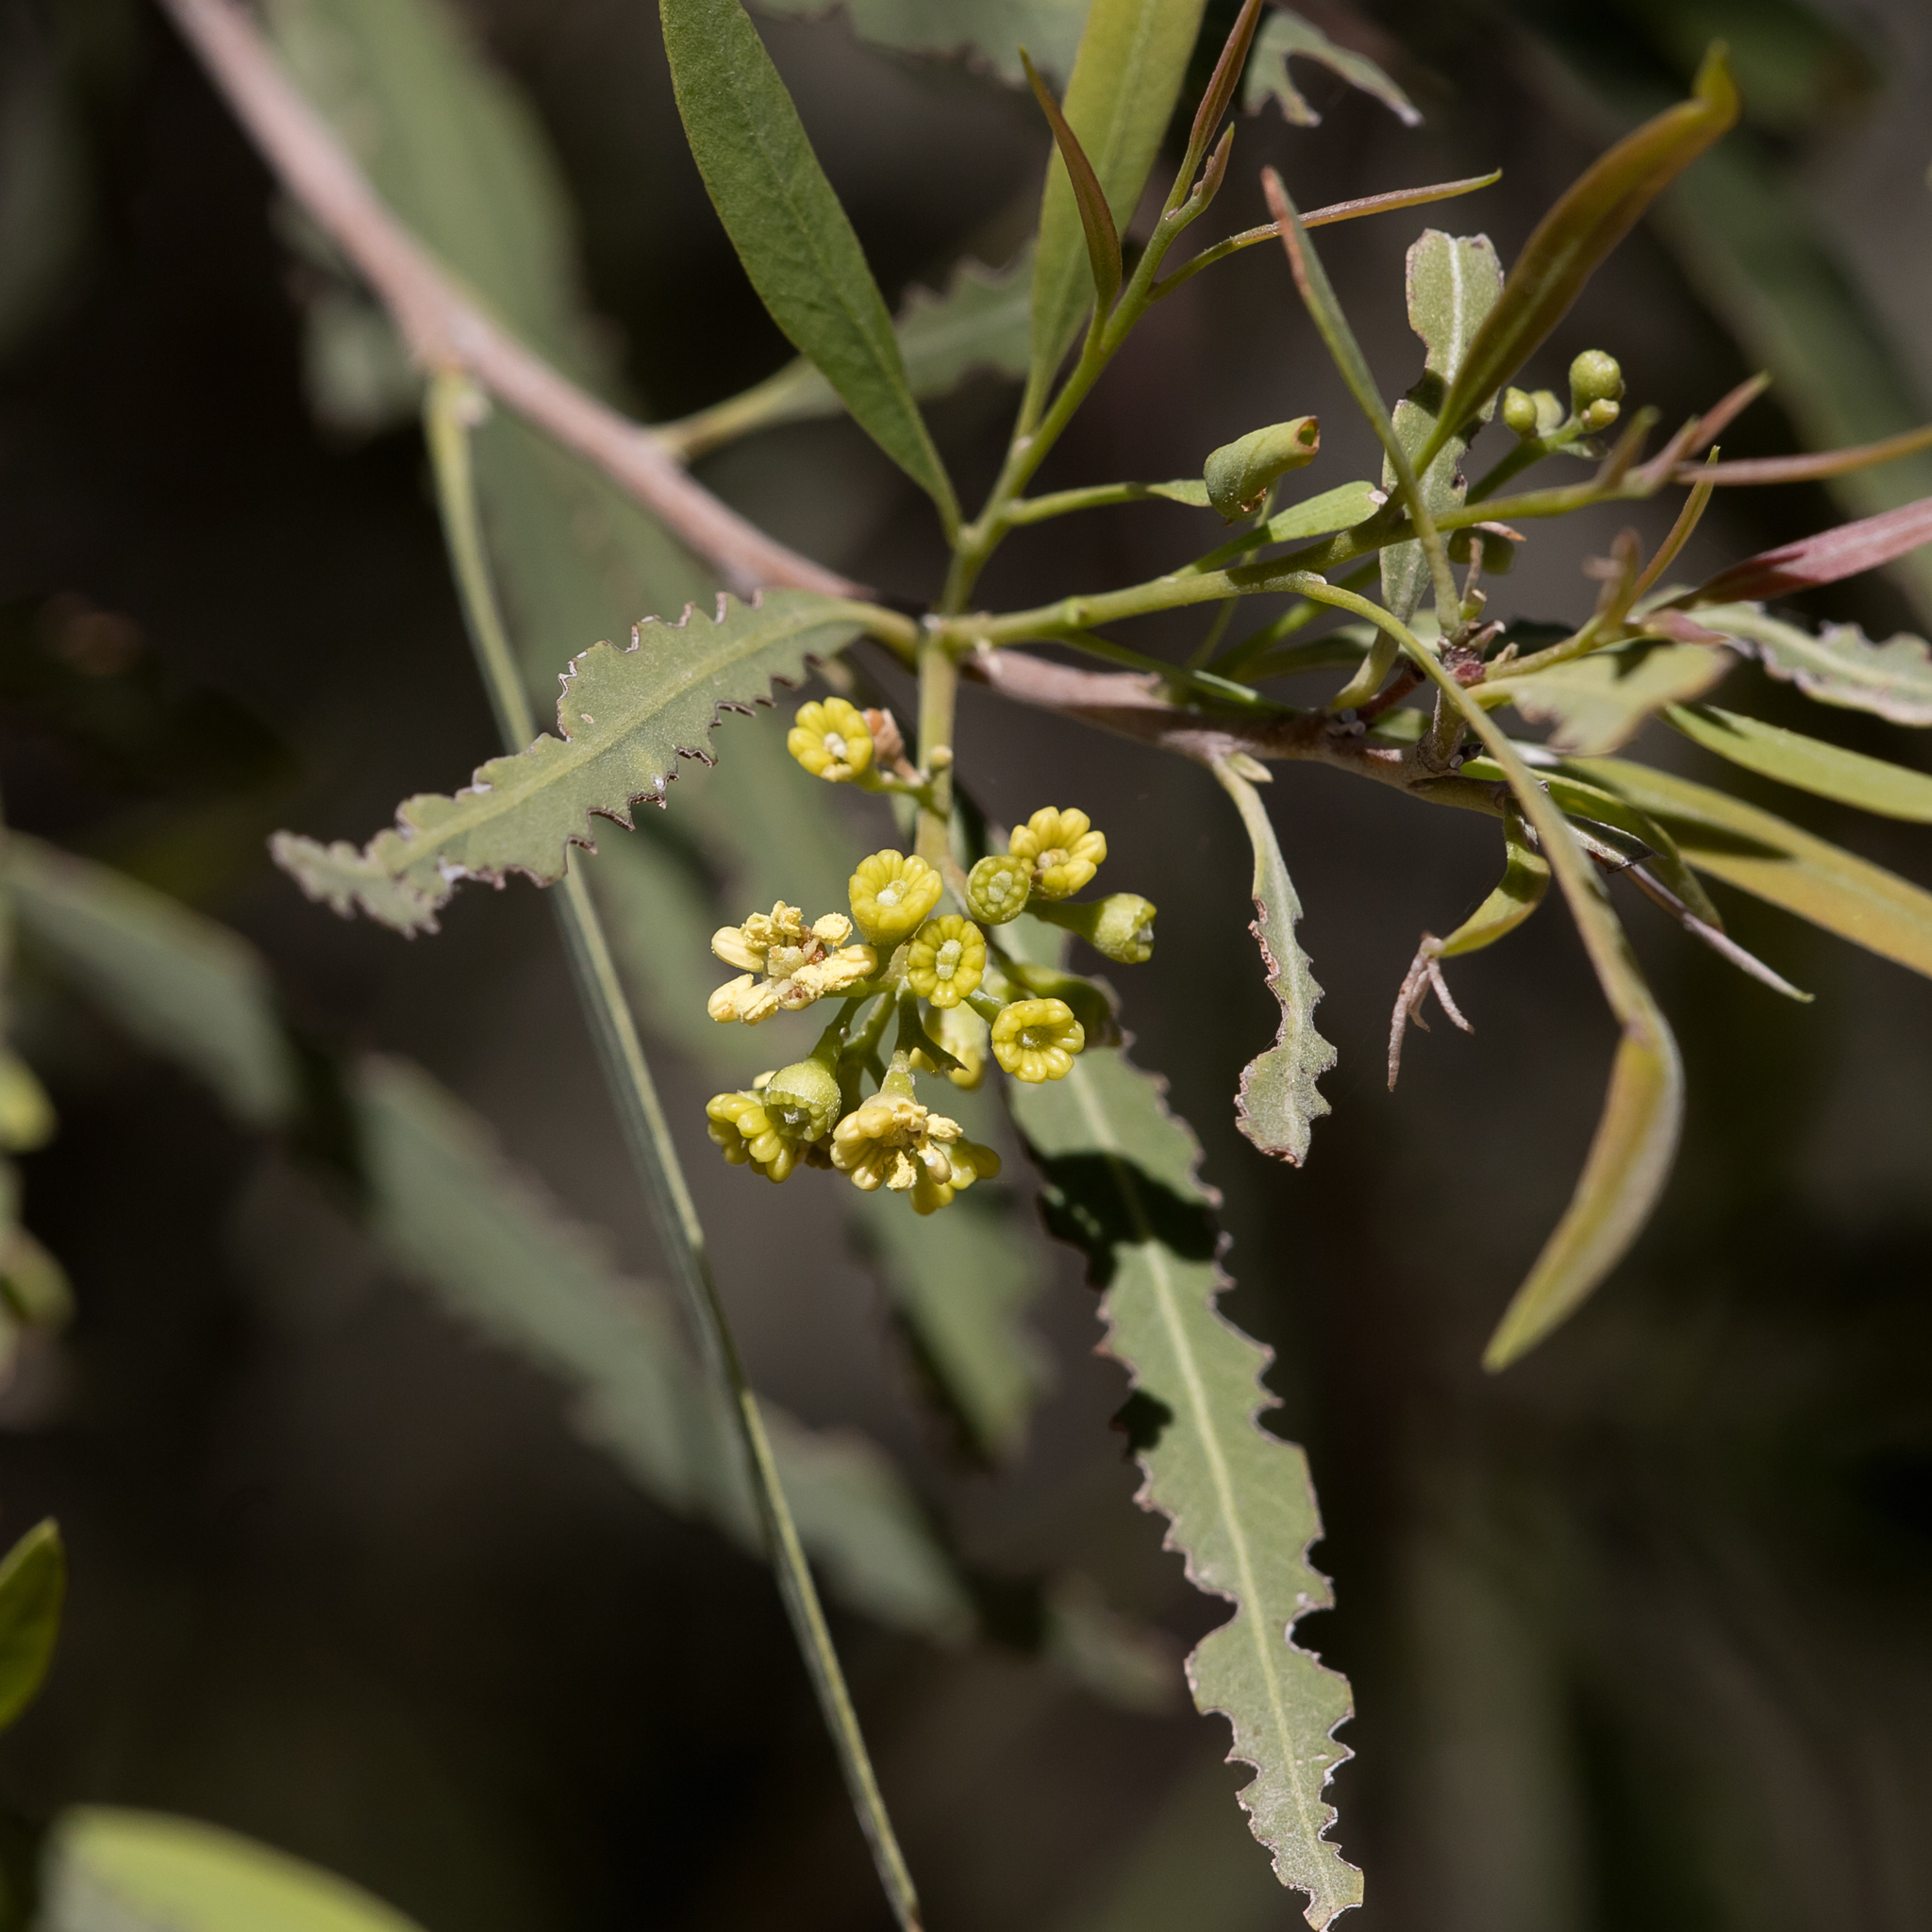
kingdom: Plantae
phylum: Tracheophyta
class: Magnoliopsida
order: Sapindales
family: Sapindaceae
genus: Alectryon
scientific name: Alectryon oleifolius
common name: Australian rosewood
